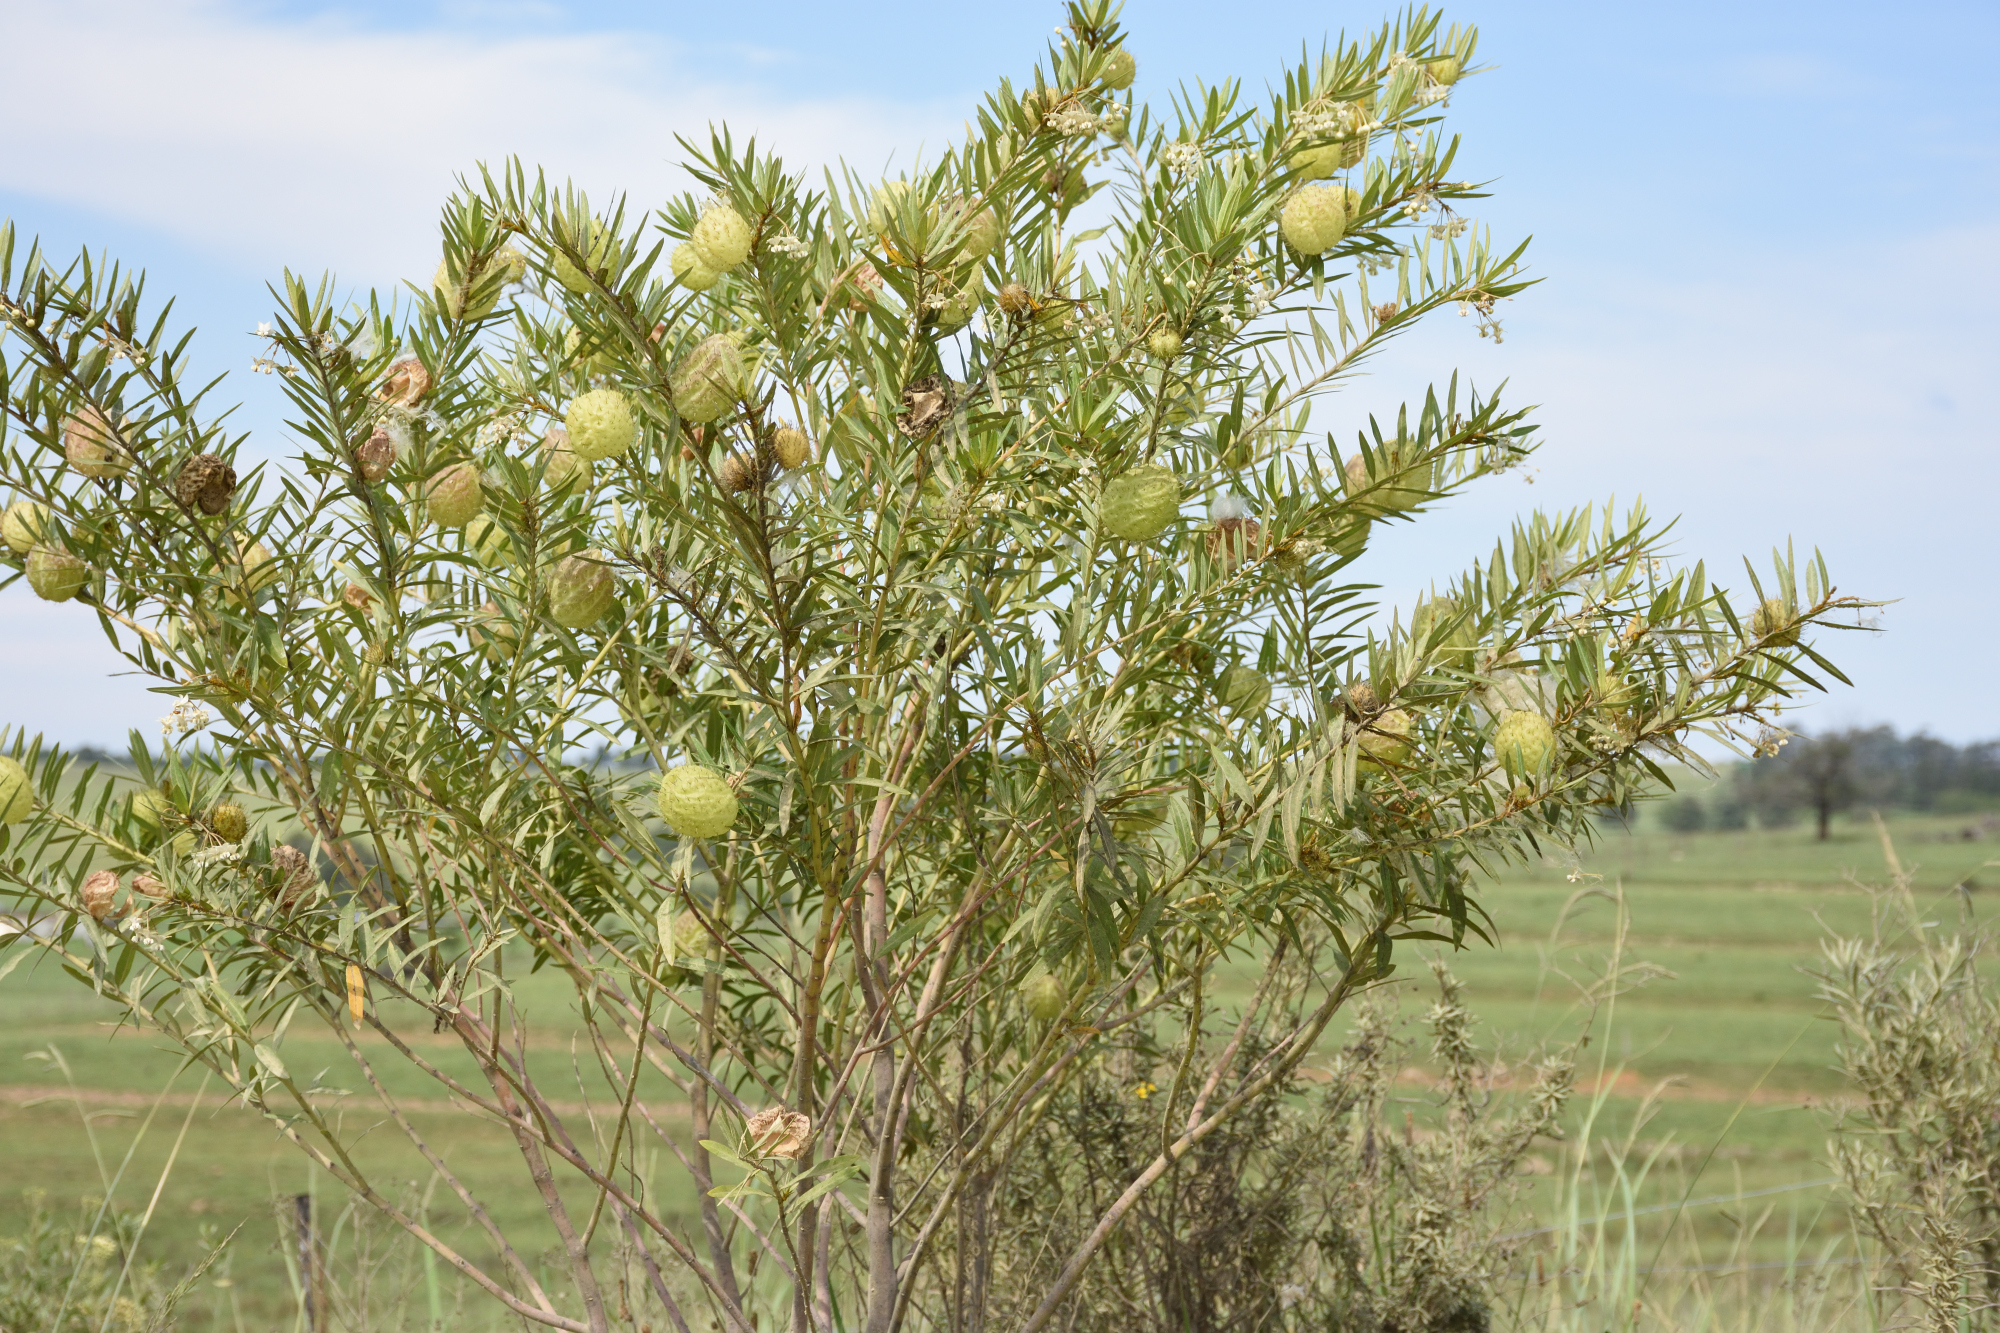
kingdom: Plantae
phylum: Tracheophyta
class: Magnoliopsida
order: Gentianales
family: Apocynaceae
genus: Gomphocarpus
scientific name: Gomphocarpus physocarpus
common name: Balloon cotton bush
